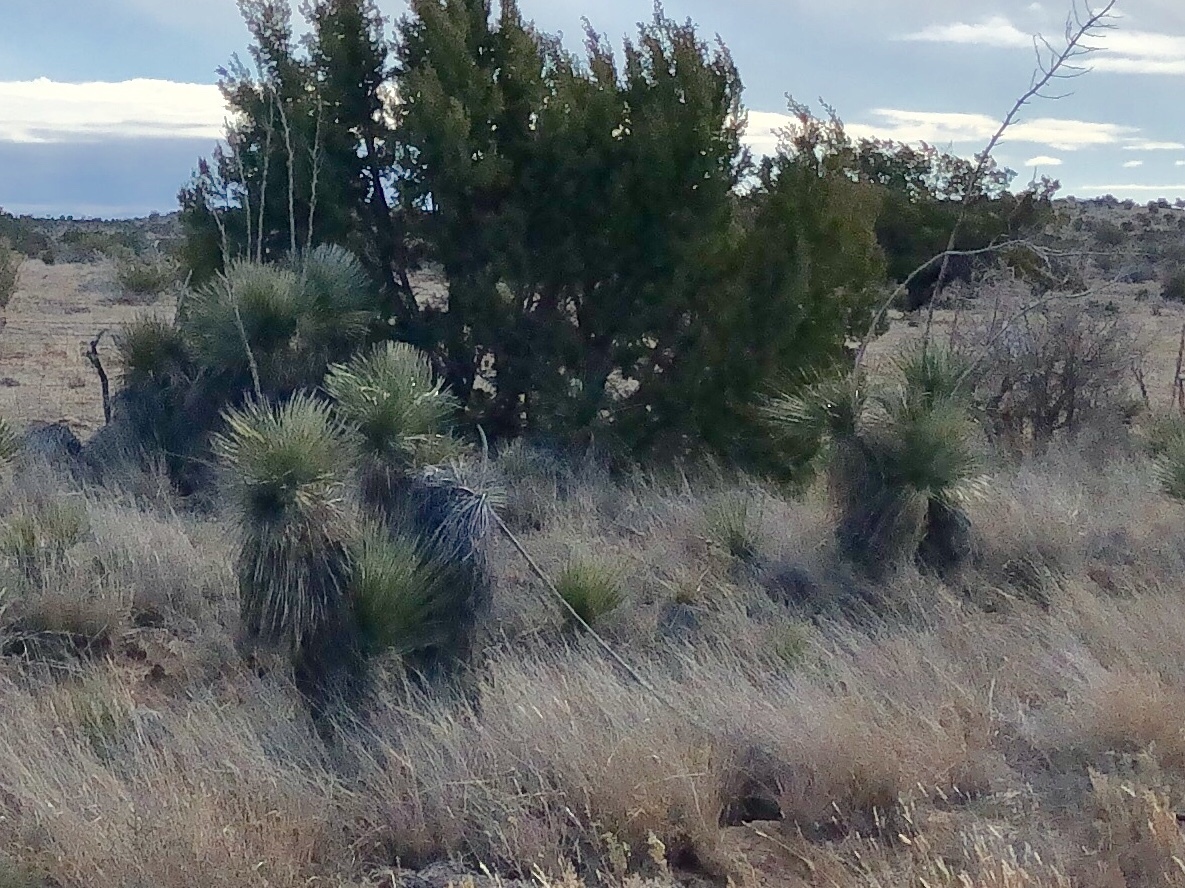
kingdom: Plantae
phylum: Tracheophyta
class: Liliopsida
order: Asparagales
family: Asparagaceae
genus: Yucca
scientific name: Yucca elata
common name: Palmella
